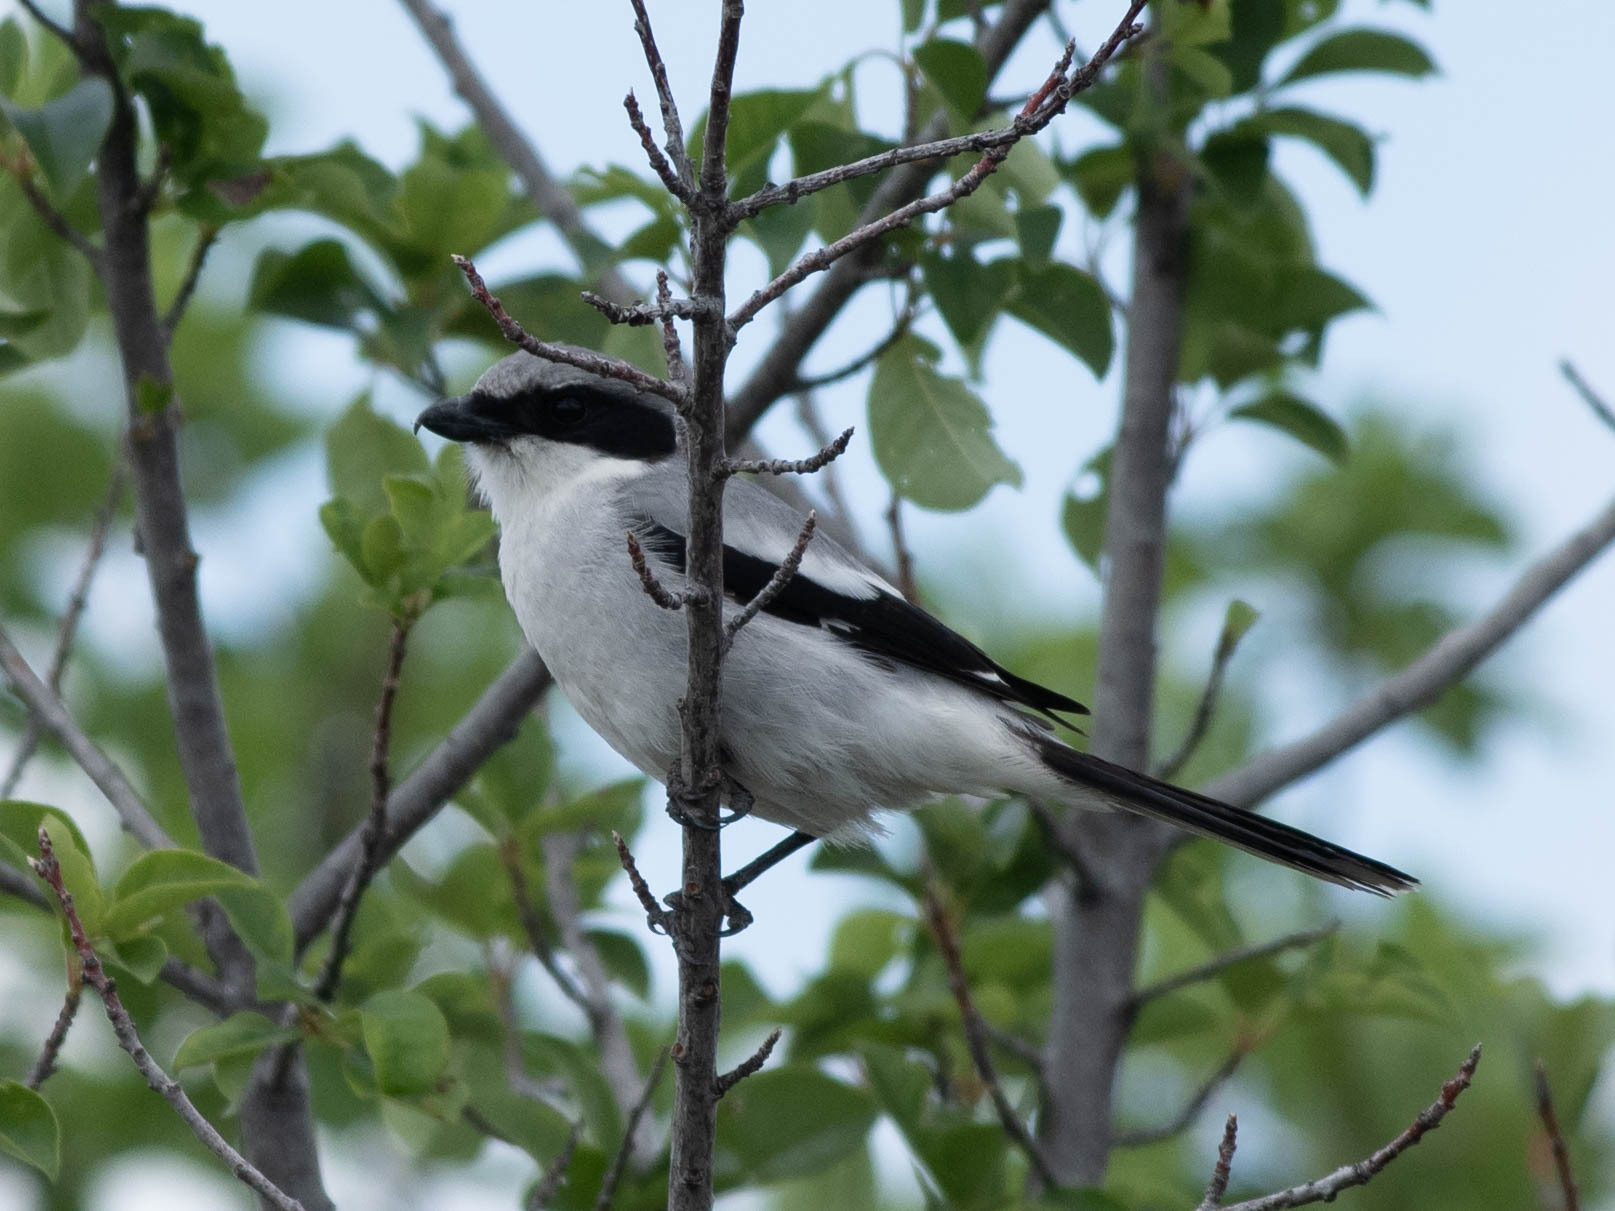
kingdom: Animalia
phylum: Chordata
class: Aves
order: Passeriformes
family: Laniidae
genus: Lanius
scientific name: Lanius ludovicianus
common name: Loggerhead shrike
